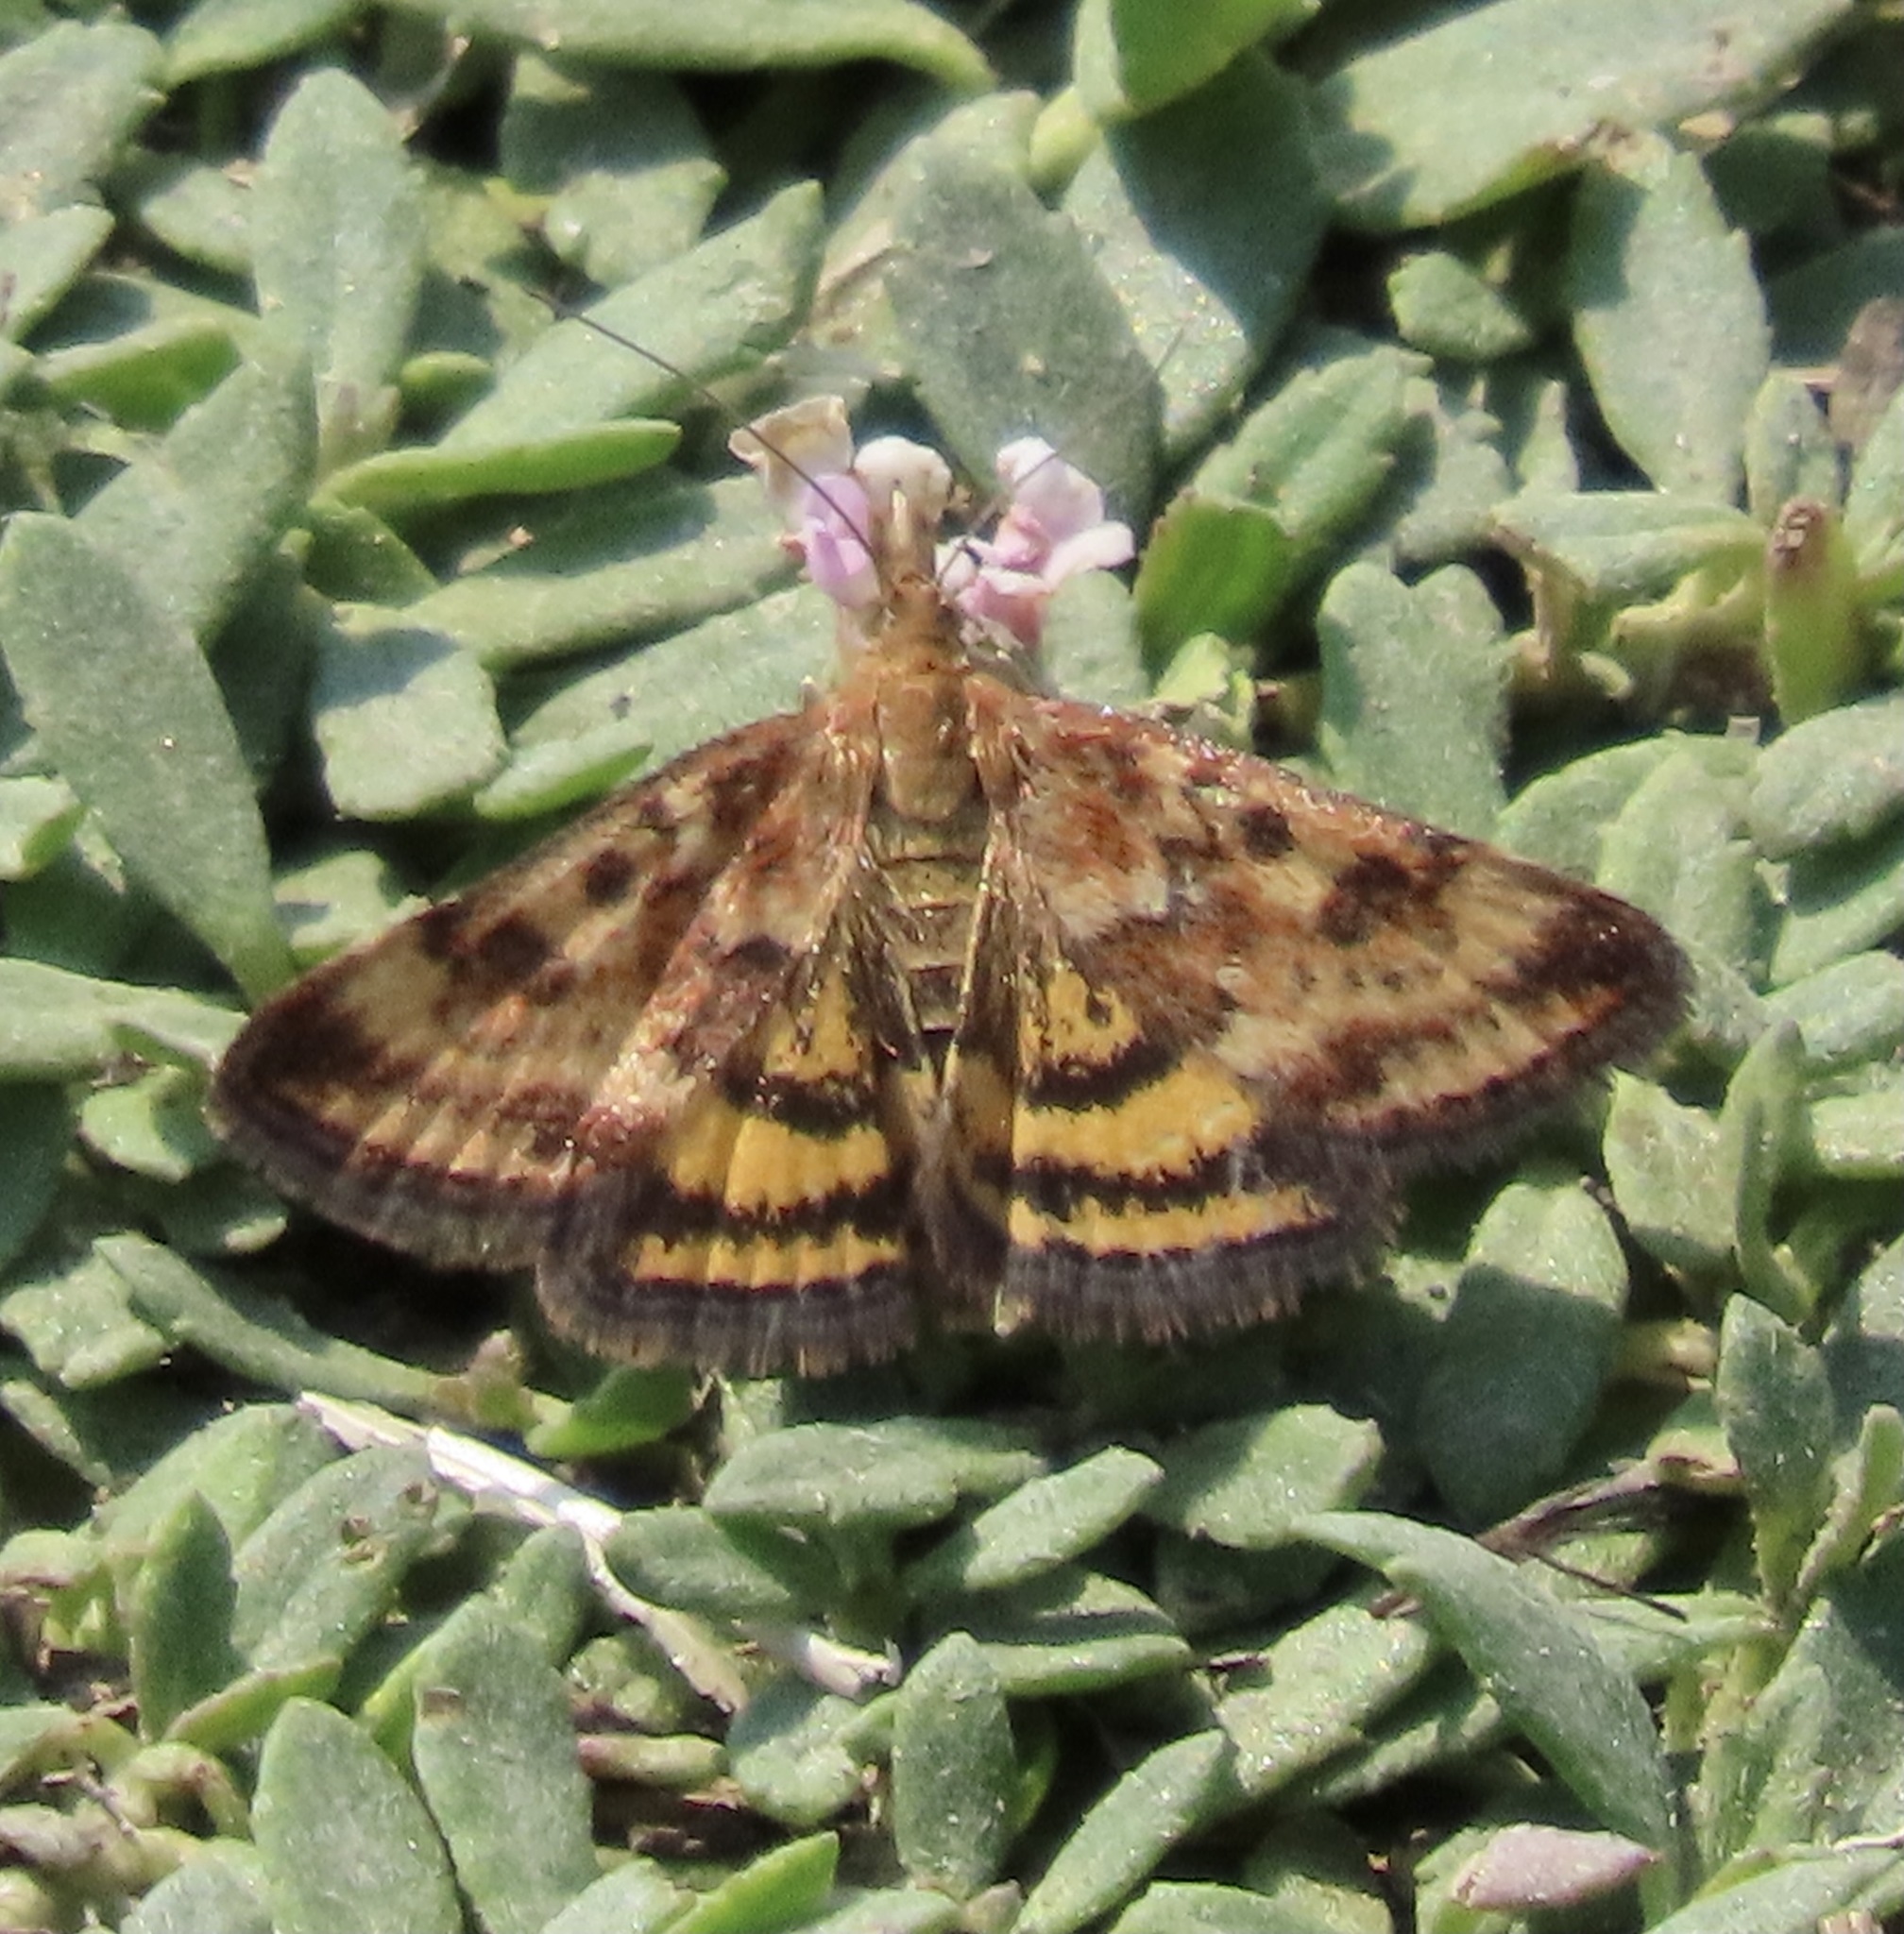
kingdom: Animalia
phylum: Arthropoda
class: Insecta
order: Lepidoptera
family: Crambidae
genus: Pyrausta
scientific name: Pyrausta subsequalis
